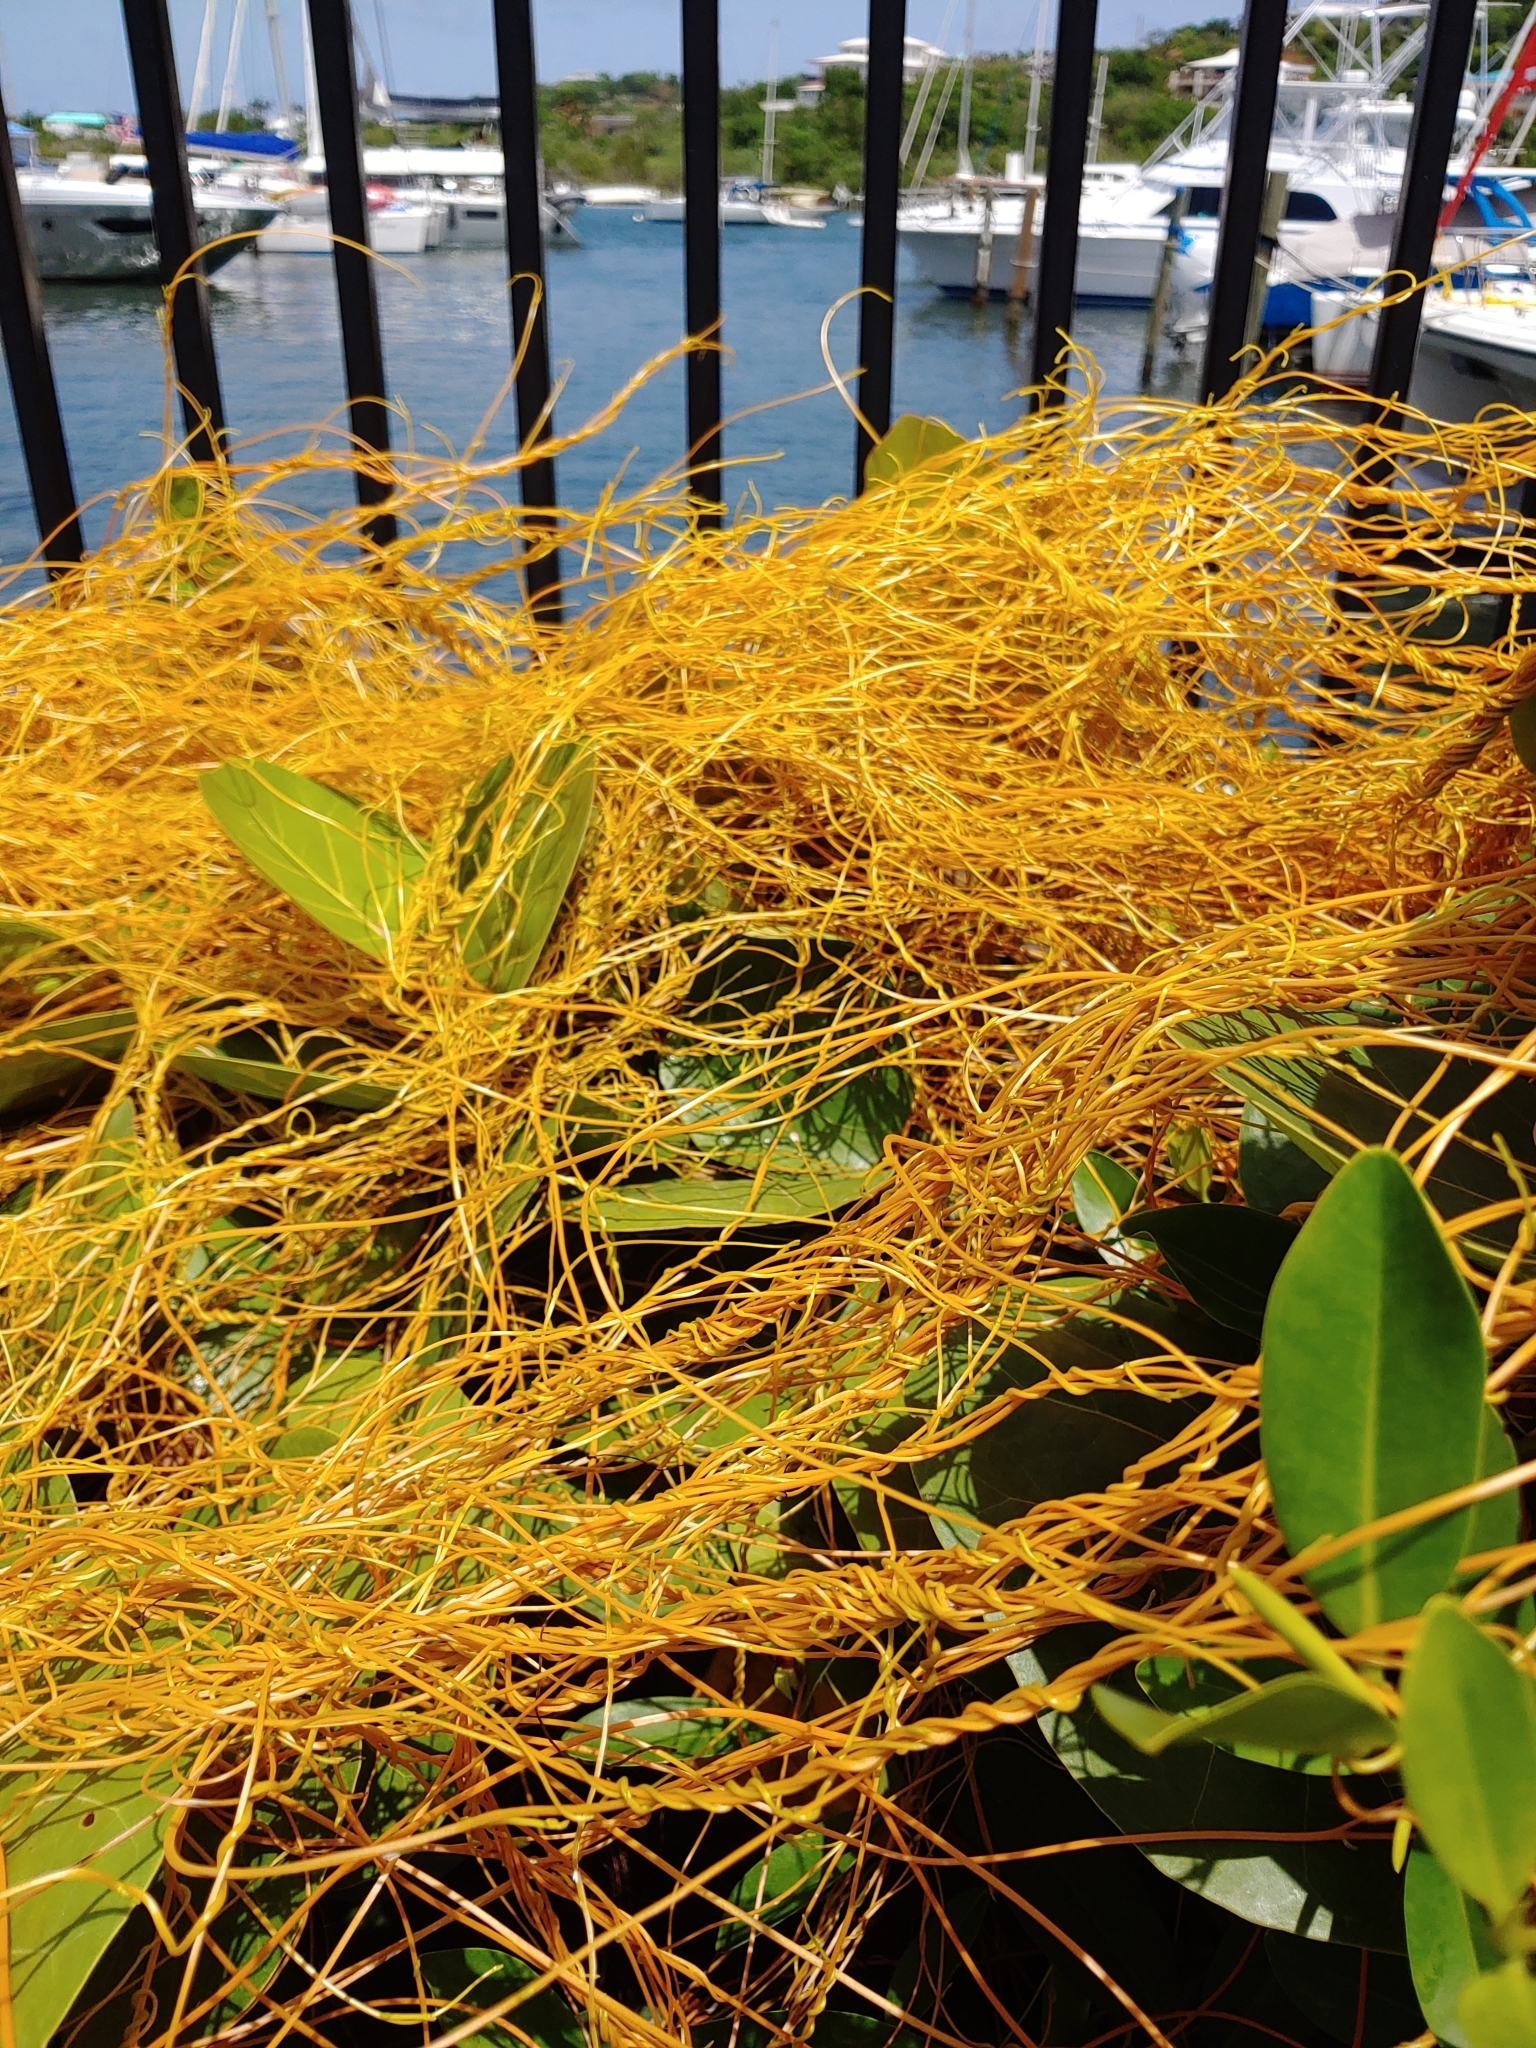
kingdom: Plantae
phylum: Tracheophyta
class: Magnoliopsida
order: Laurales
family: Lauraceae
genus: Cassytha
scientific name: Cassytha filiformis
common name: Dodder-laurel
